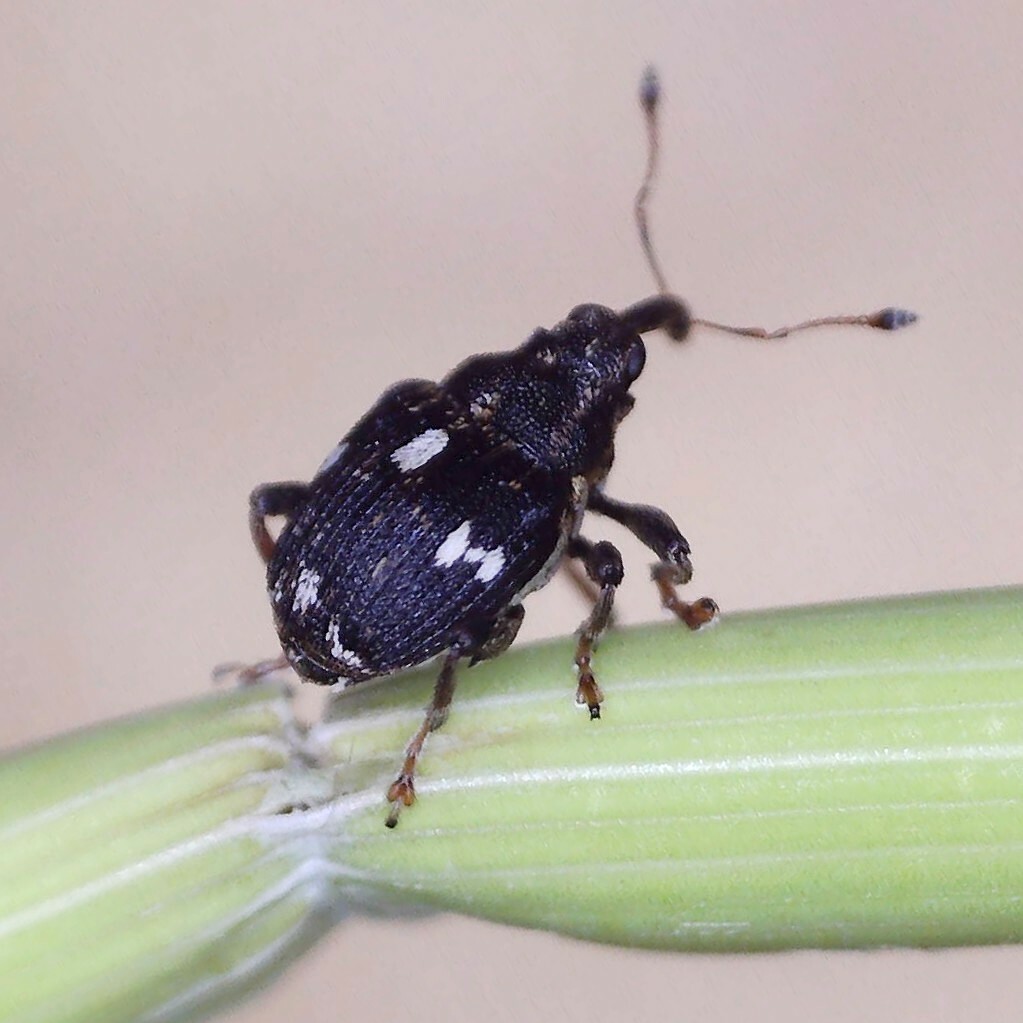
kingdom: Animalia
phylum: Arthropoda
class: Insecta
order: Coleoptera
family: Curculionidae
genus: Mogulones
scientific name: Mogulones asperifoliarum
